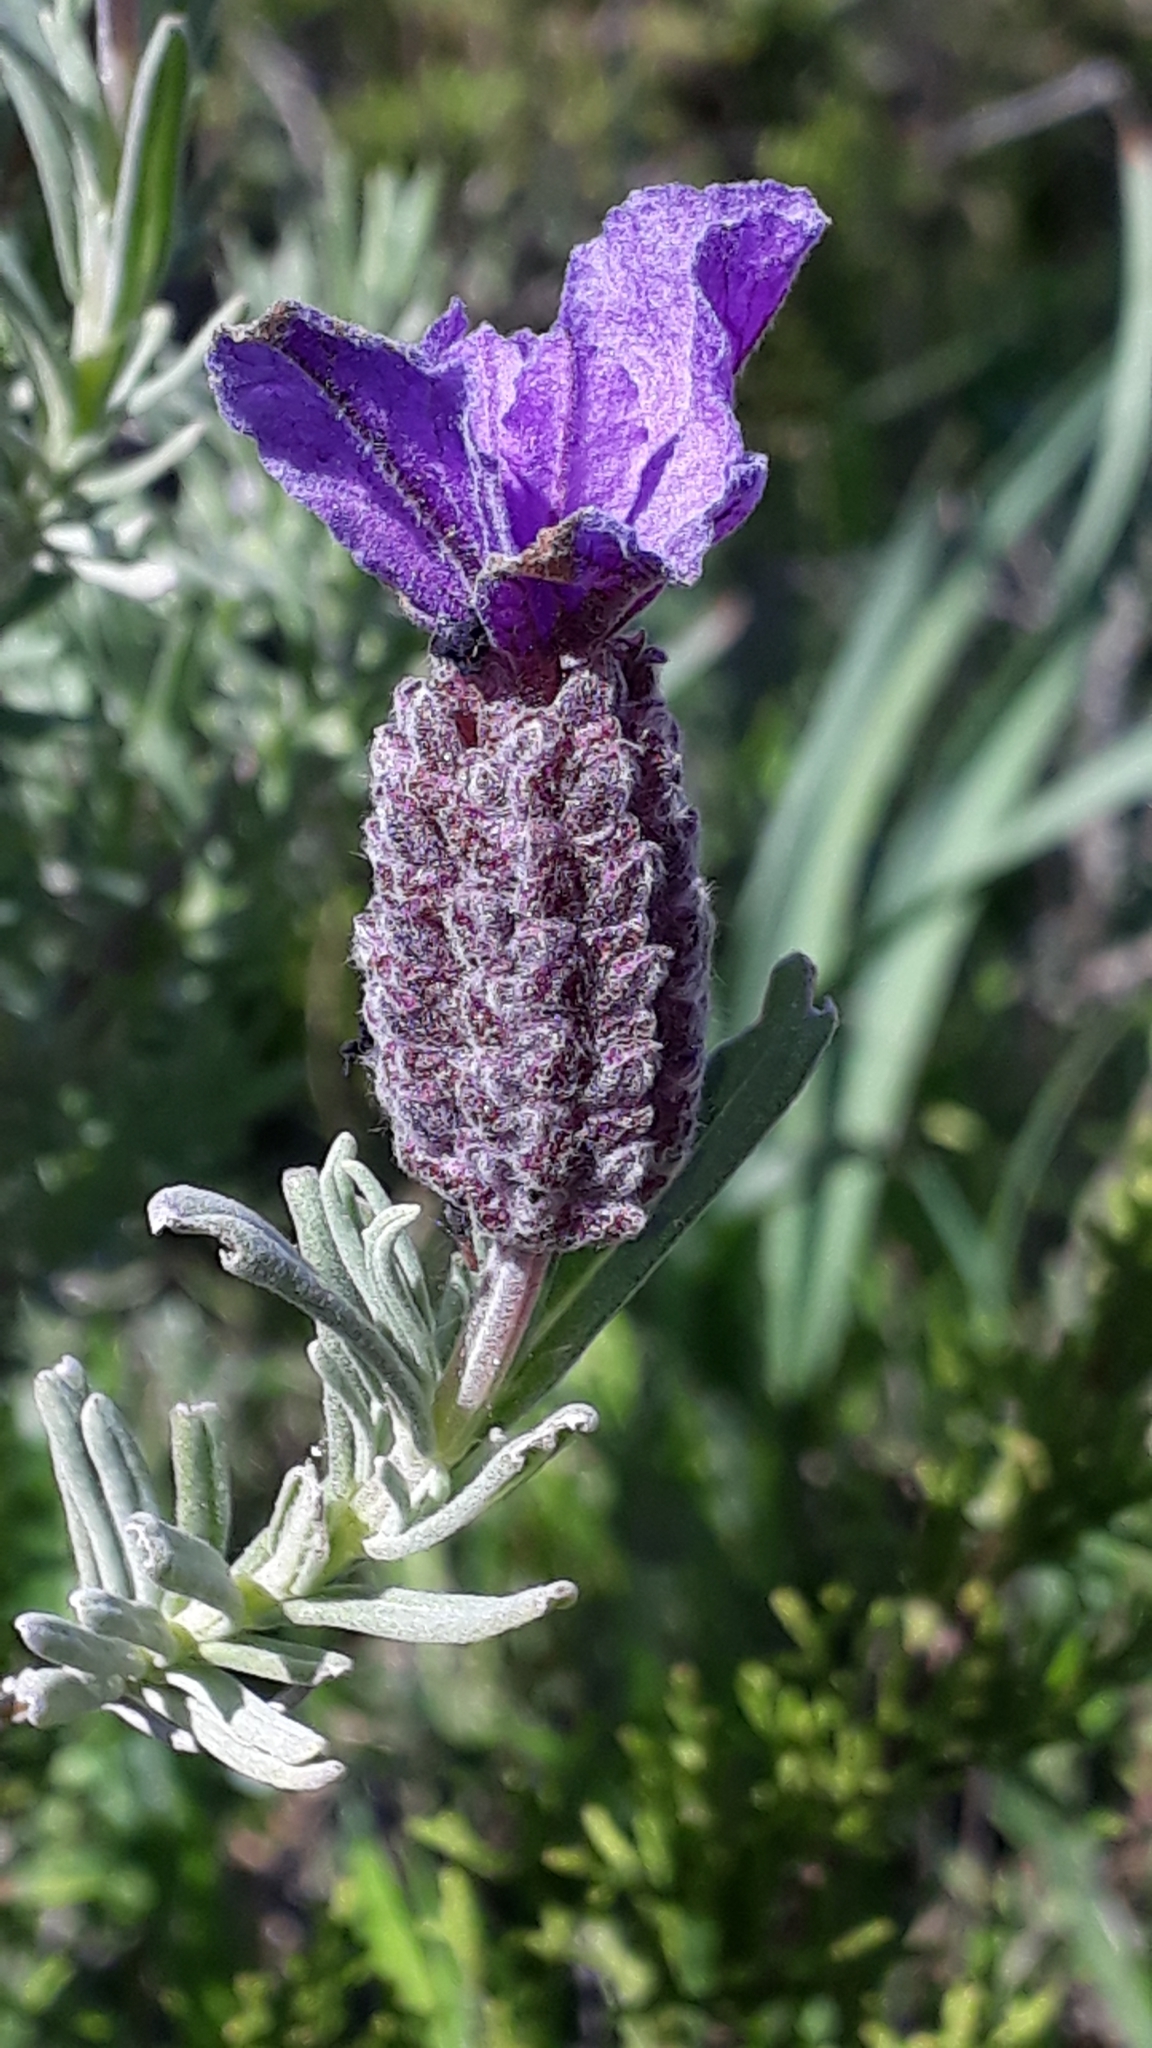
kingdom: Plantae
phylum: Tracheophyta
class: Magnoliopsida
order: Lamiales
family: Lamiaceae
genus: Lavandula
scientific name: Lavandula stoechas
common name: French lavender
